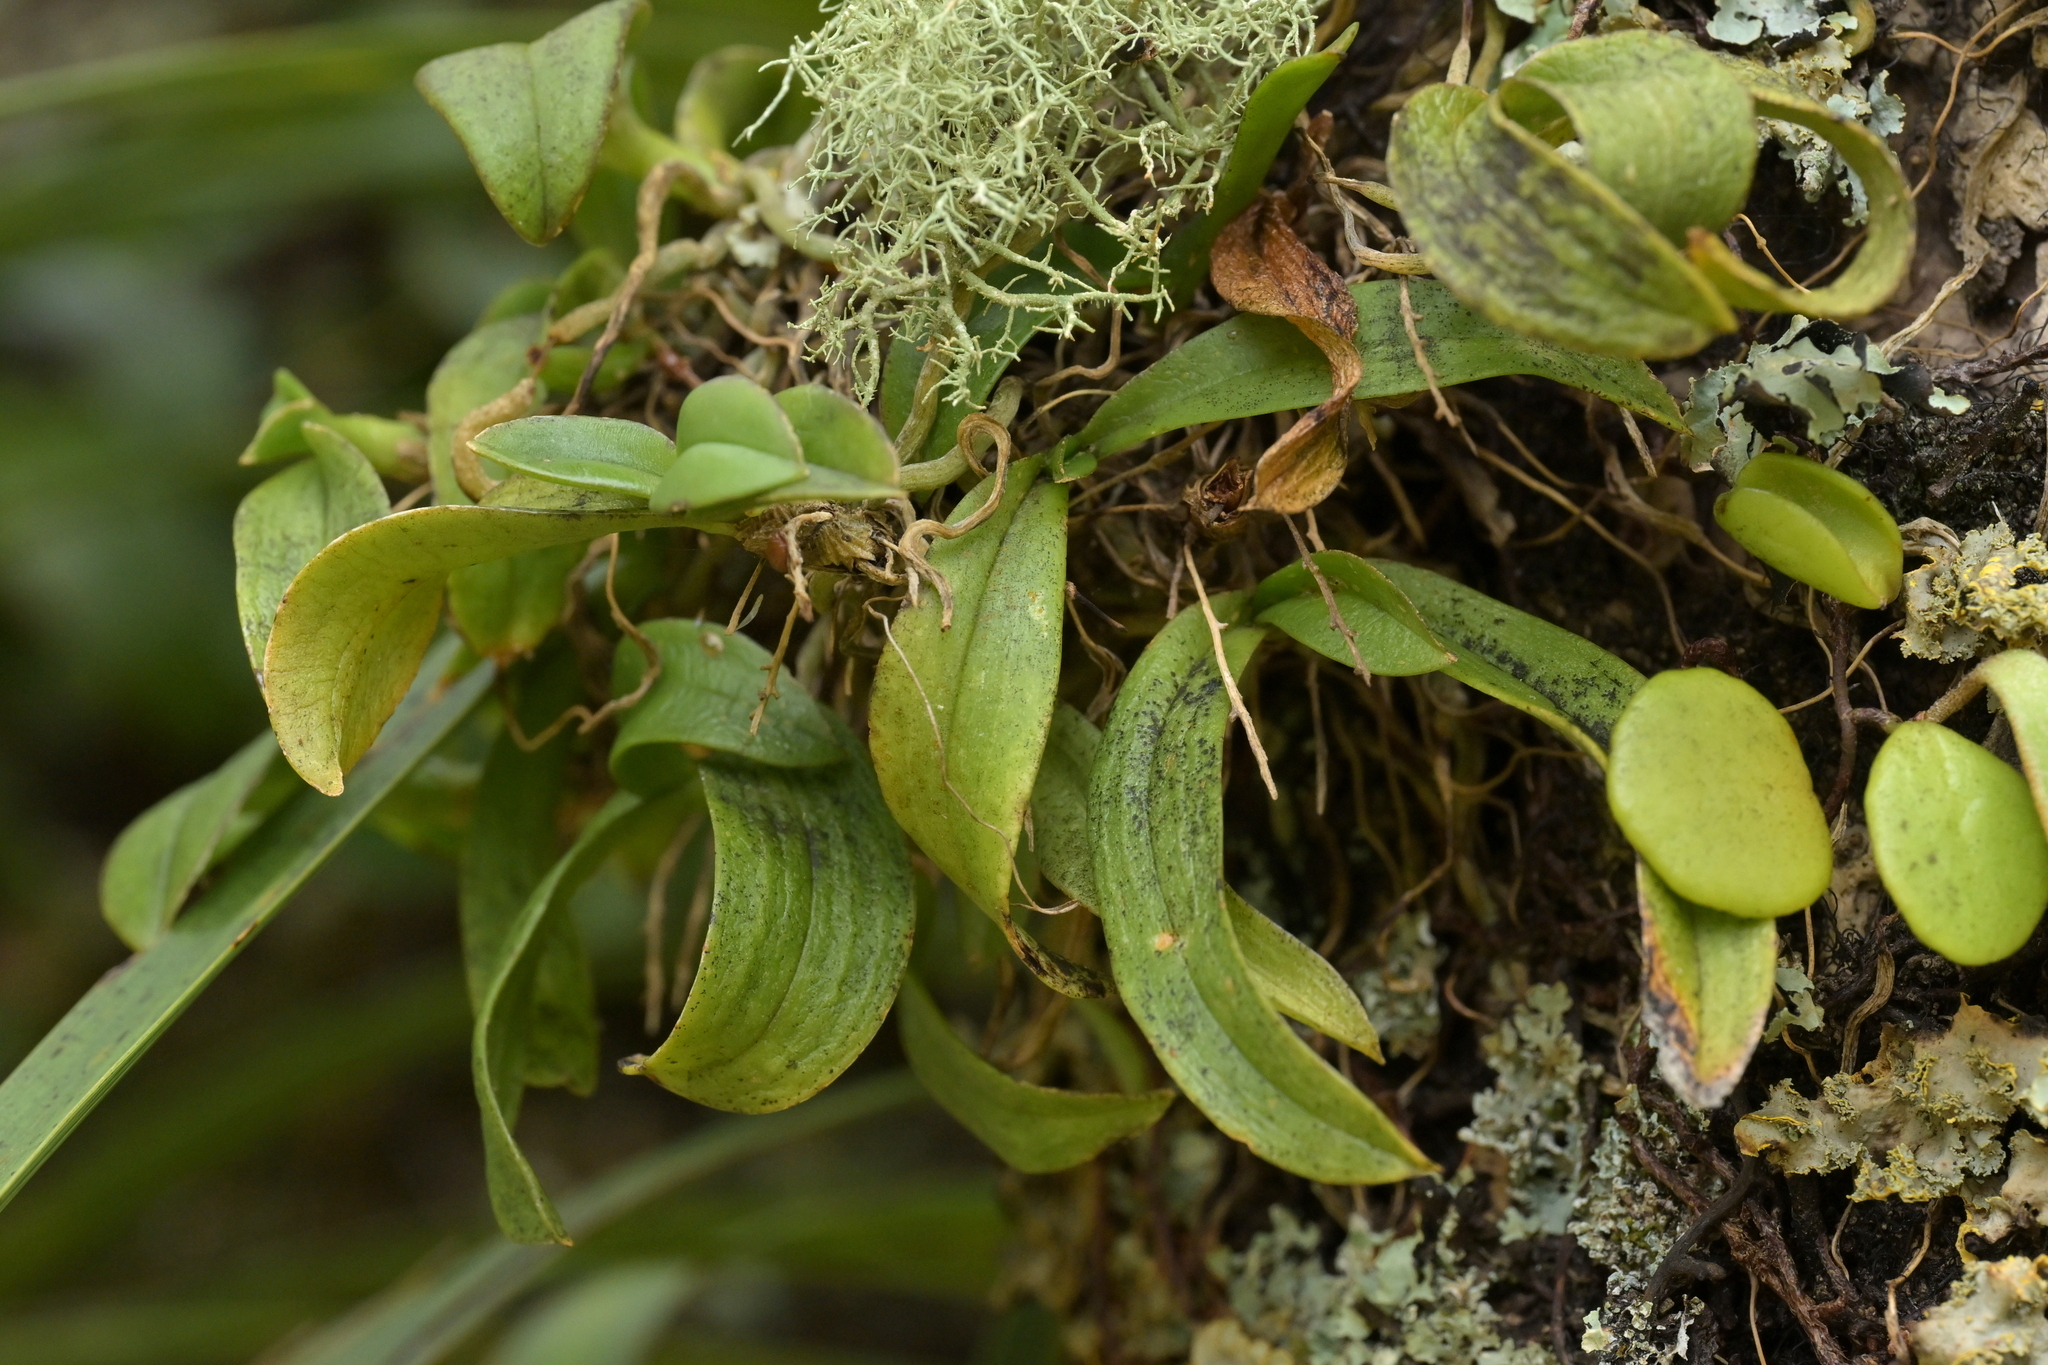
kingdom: Plantae
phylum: Tracheophyta
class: Liliopsida
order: Asparagales
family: Orchidaceae
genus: Drymoanthus
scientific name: Drymoanthus adversus
